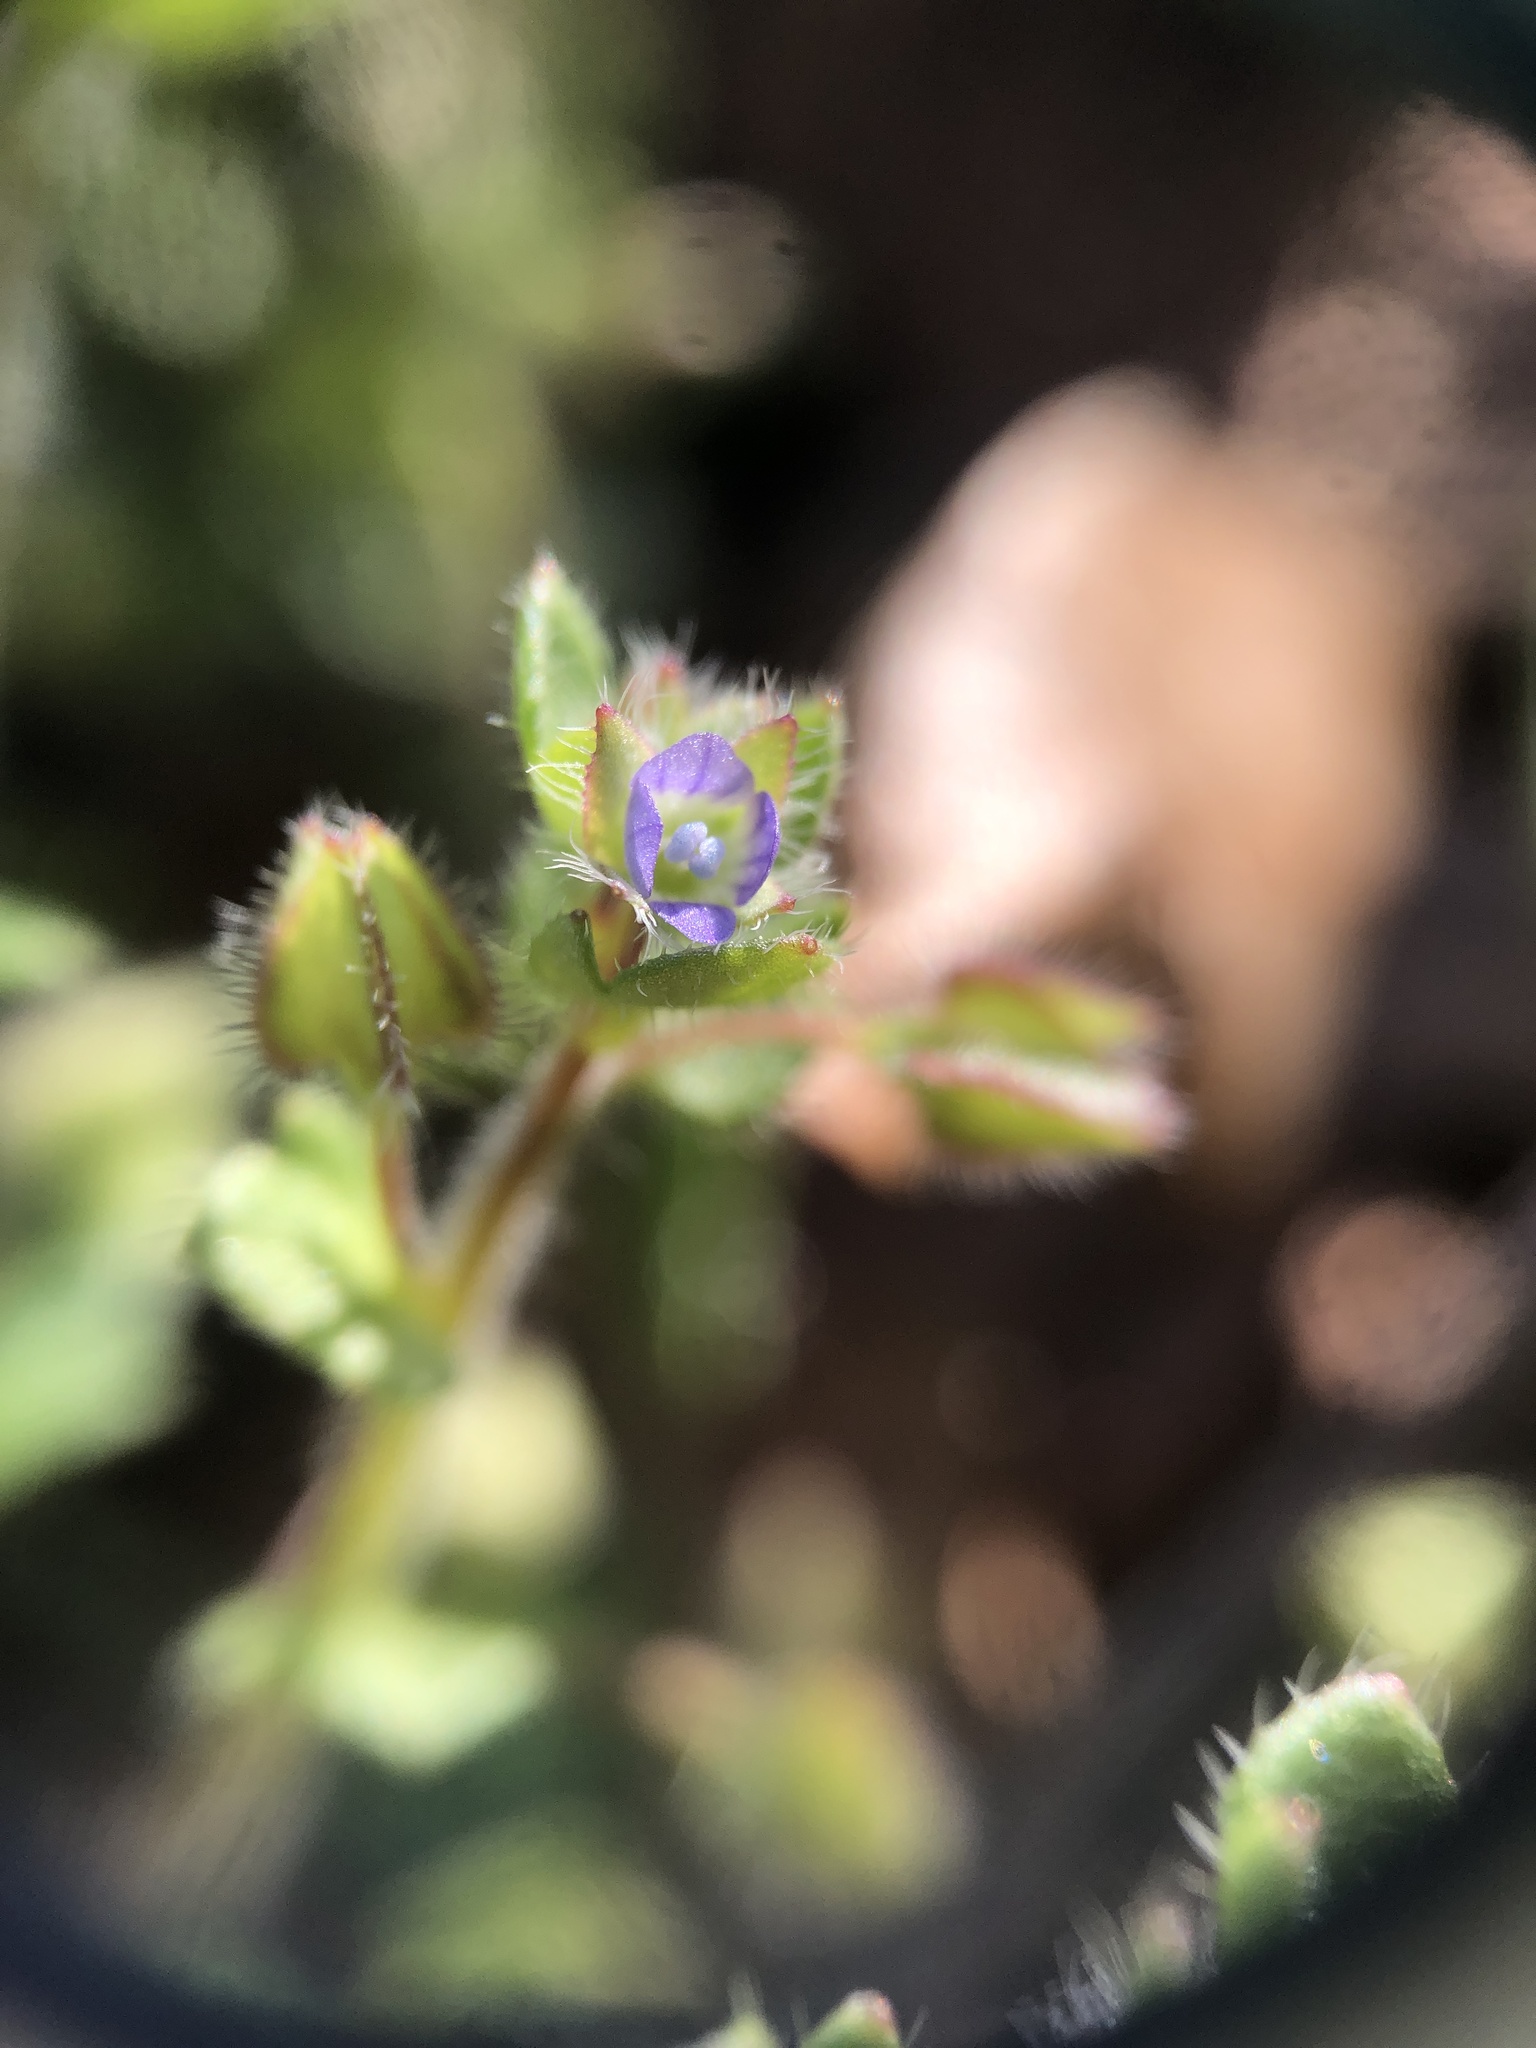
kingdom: Plantae
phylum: Tracheophyta
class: Magnoliopsida
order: Lamiales
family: Plantaginaceae
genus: Veronica
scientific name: Veronica hederifolia
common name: Ivy-leaved speedwell
